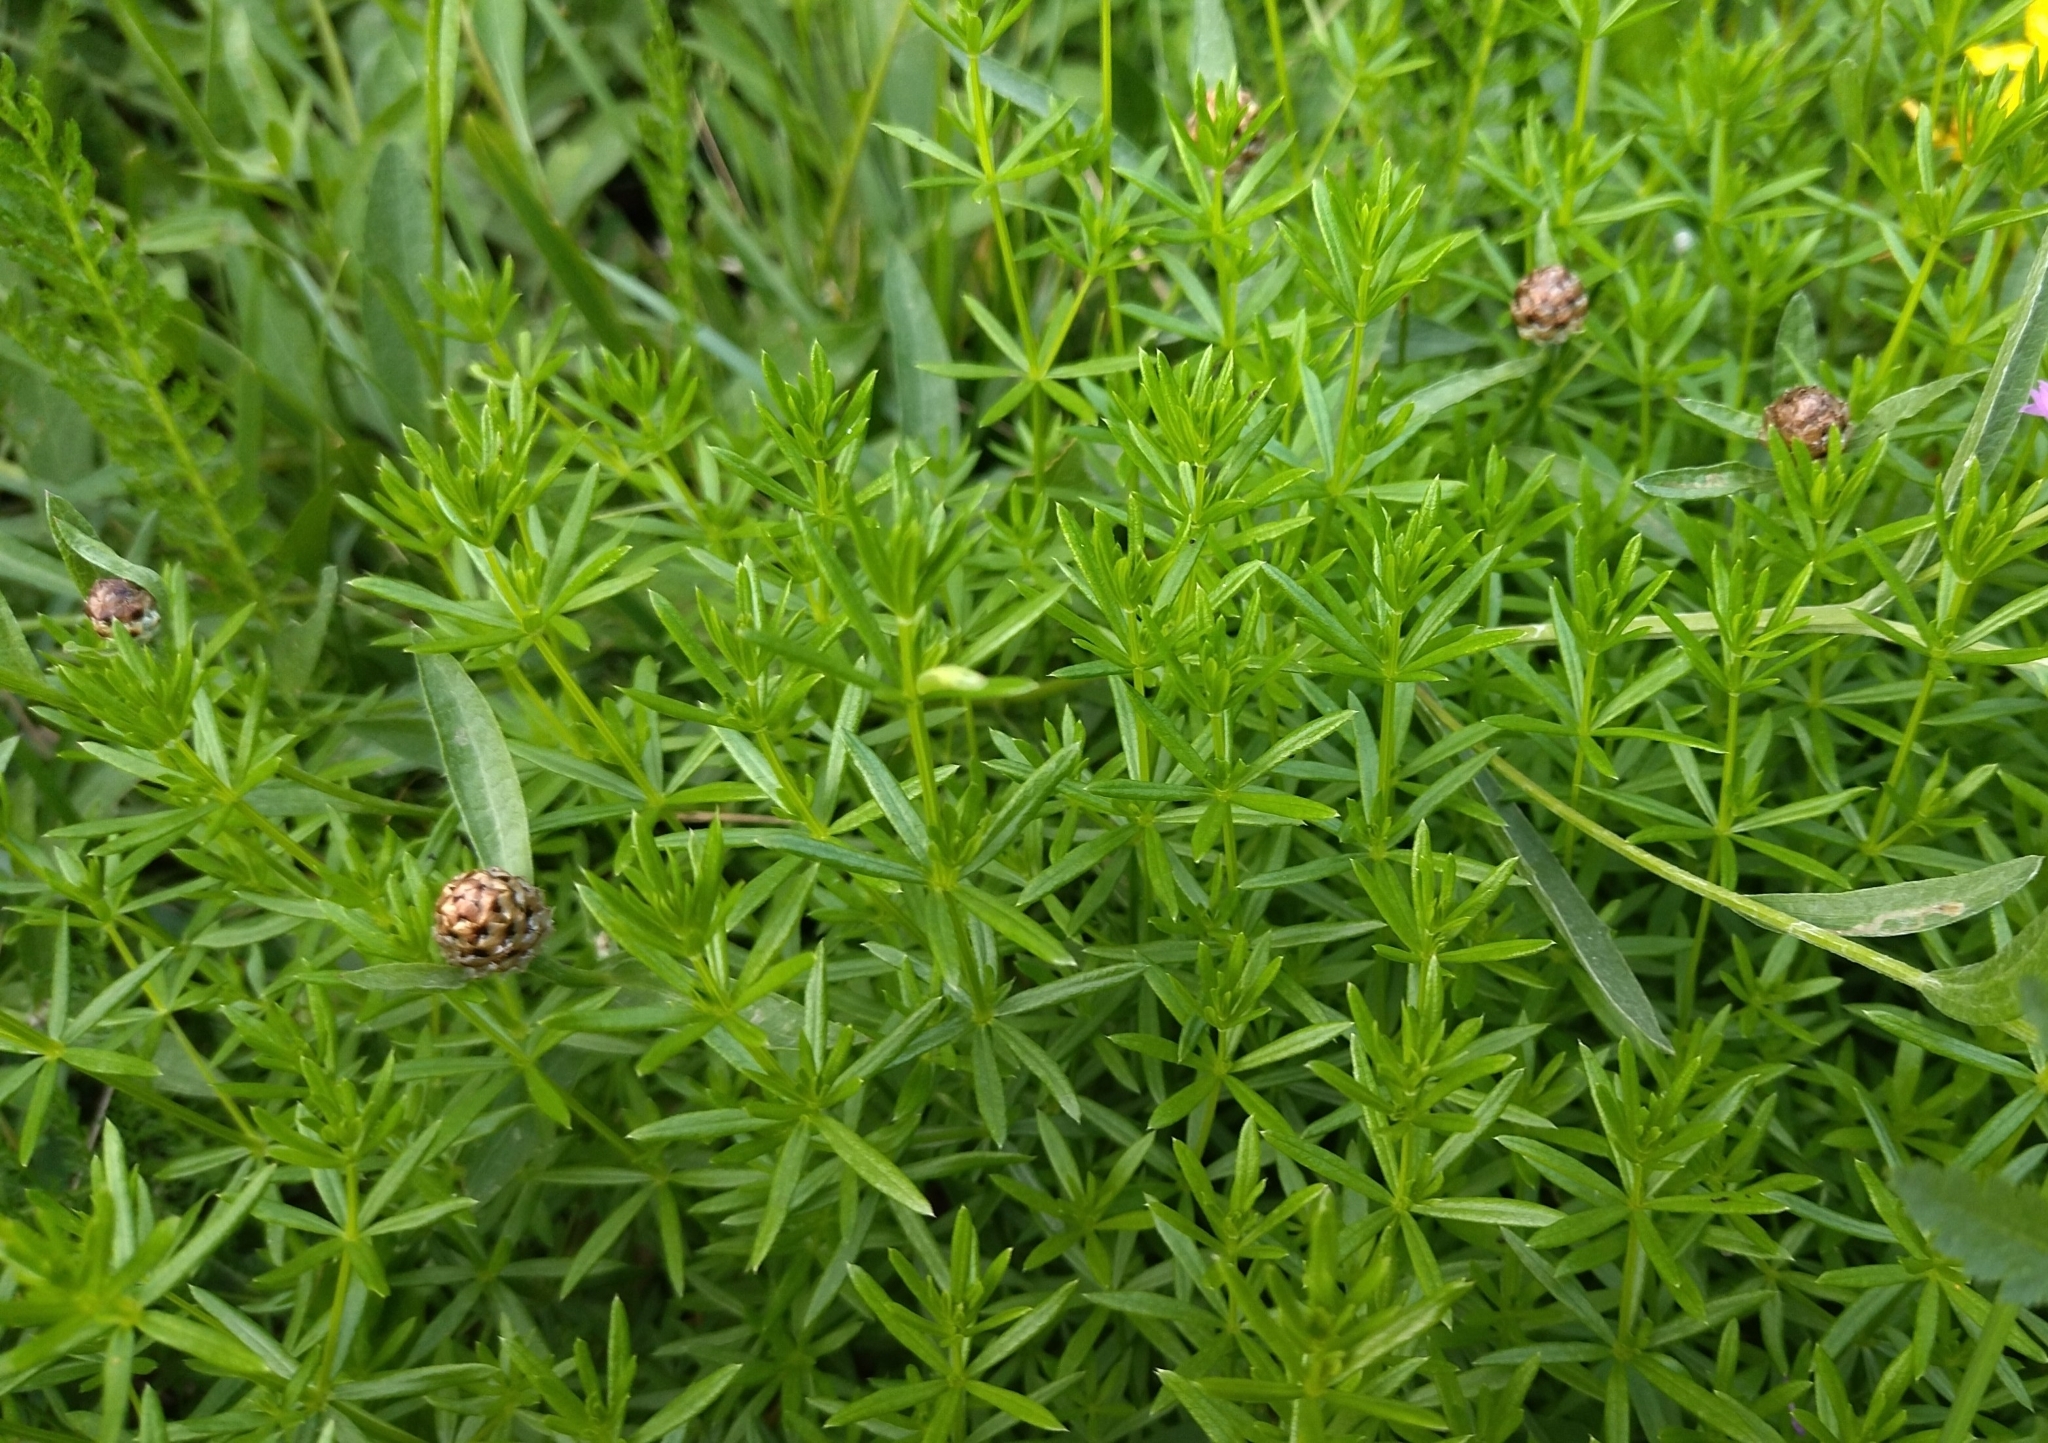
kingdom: Plantae
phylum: Tracheophyta
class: Magnoliopsida
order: Gentianales
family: Rubiaceae
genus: Galium
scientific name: Galium mollugo
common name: Hedge bedstraw
